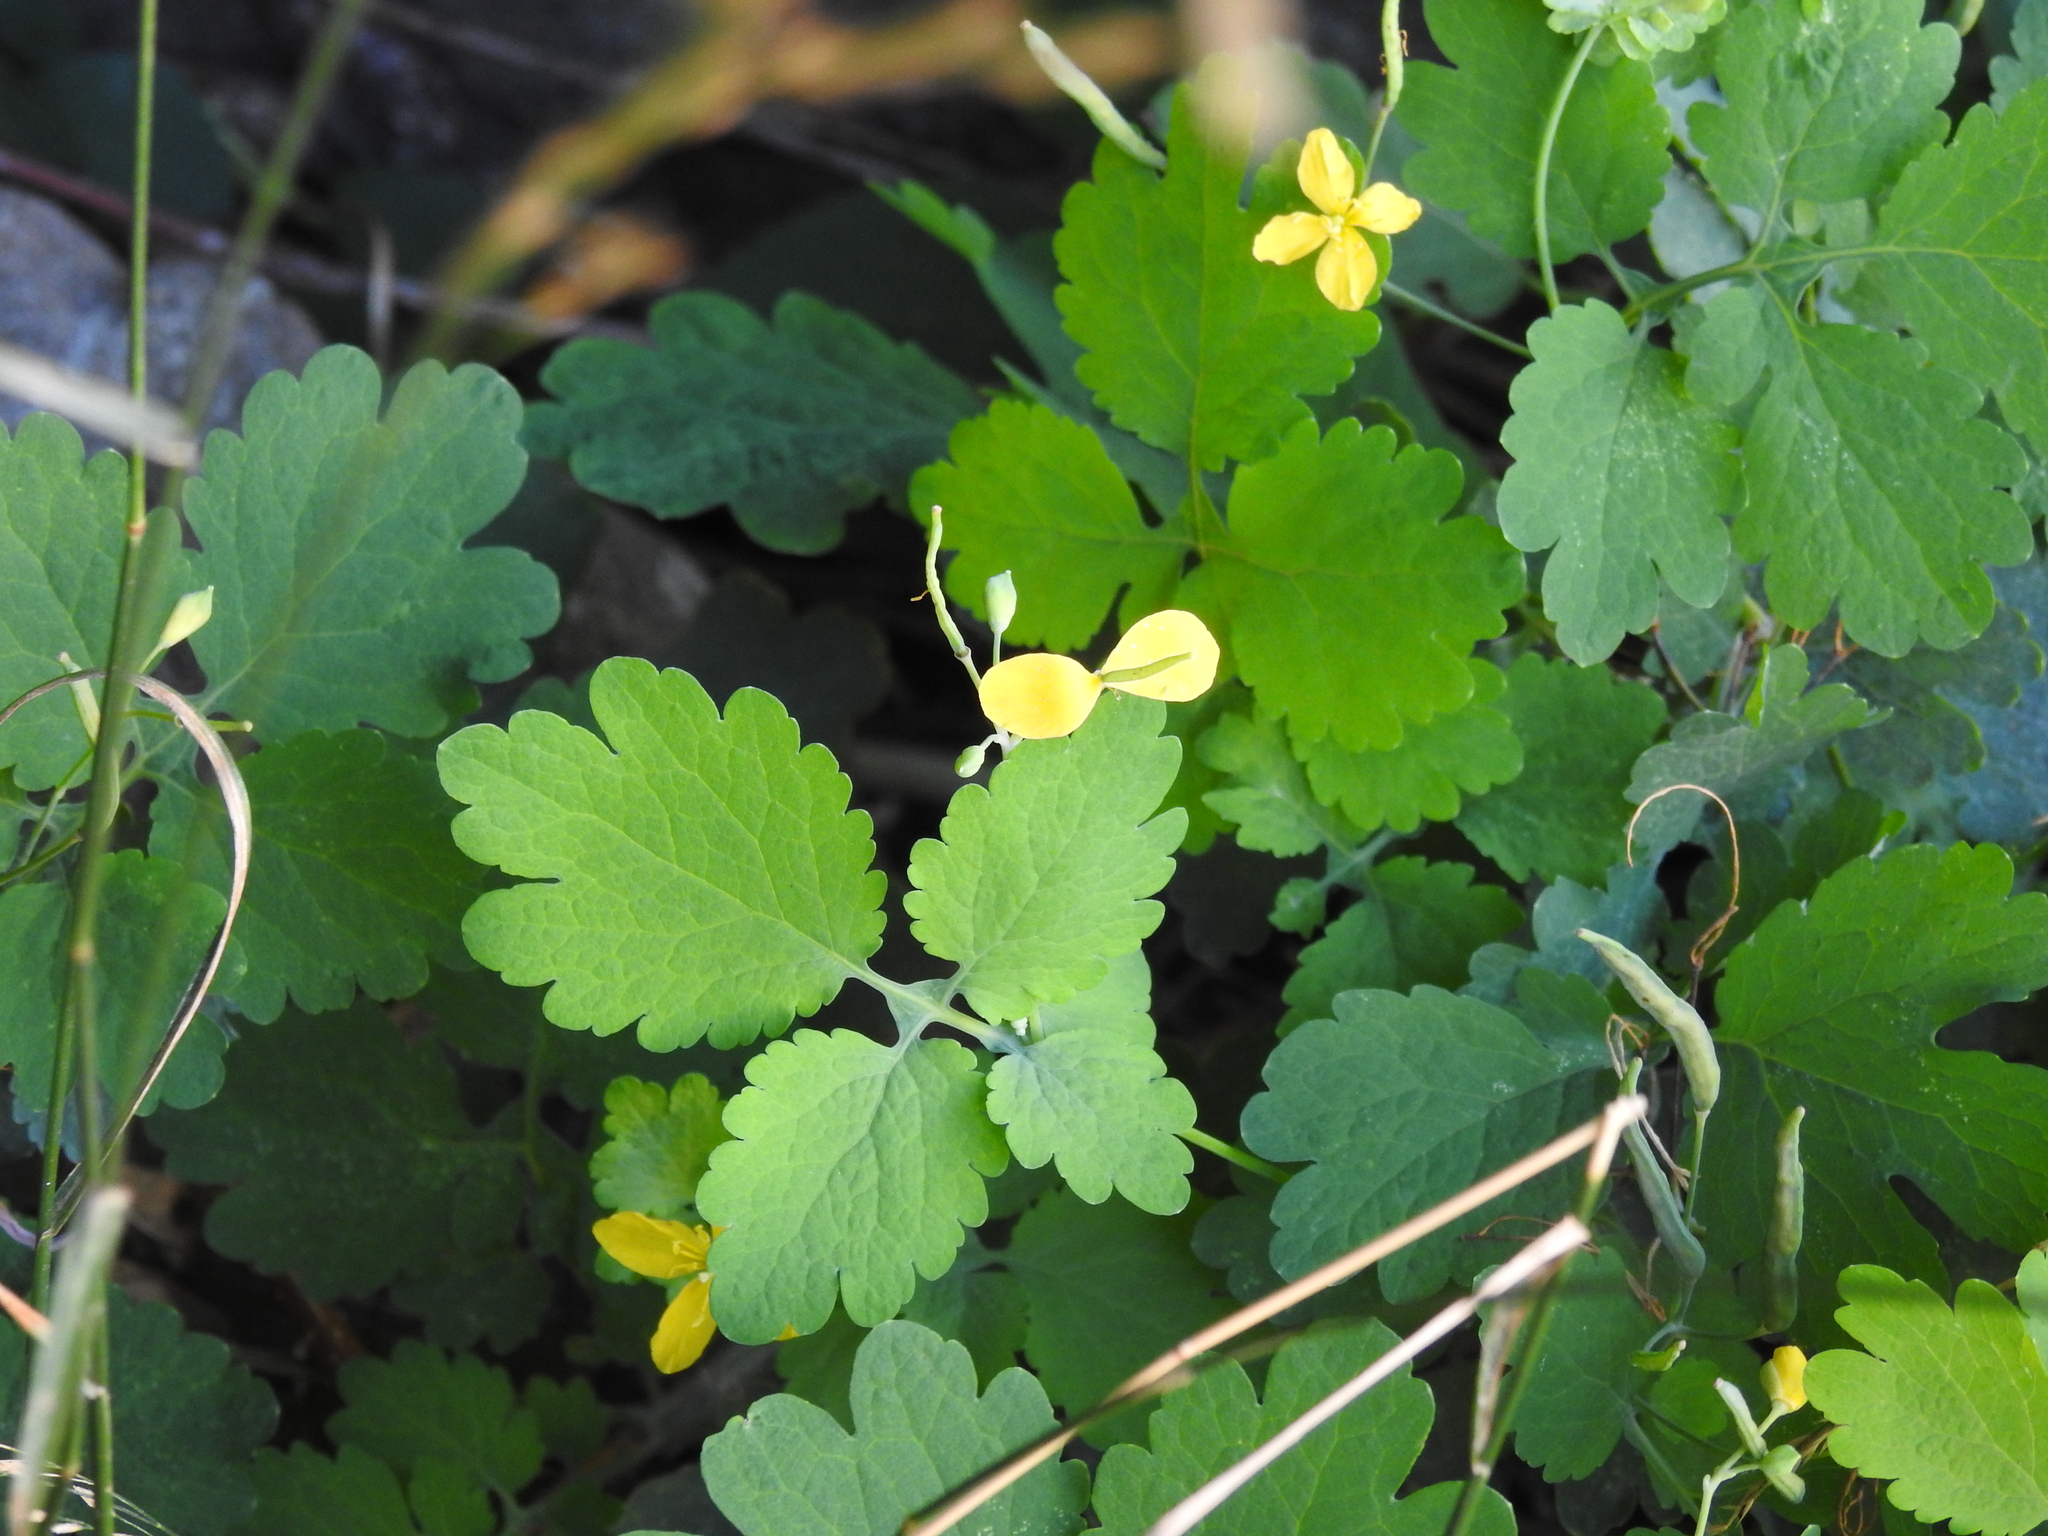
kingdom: Plantae
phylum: Tracheophyta
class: Magnoliopsida
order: Ranunculales
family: Papaveraceae
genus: Chelidonium
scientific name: Chelidonium majus
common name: Greater celandine
